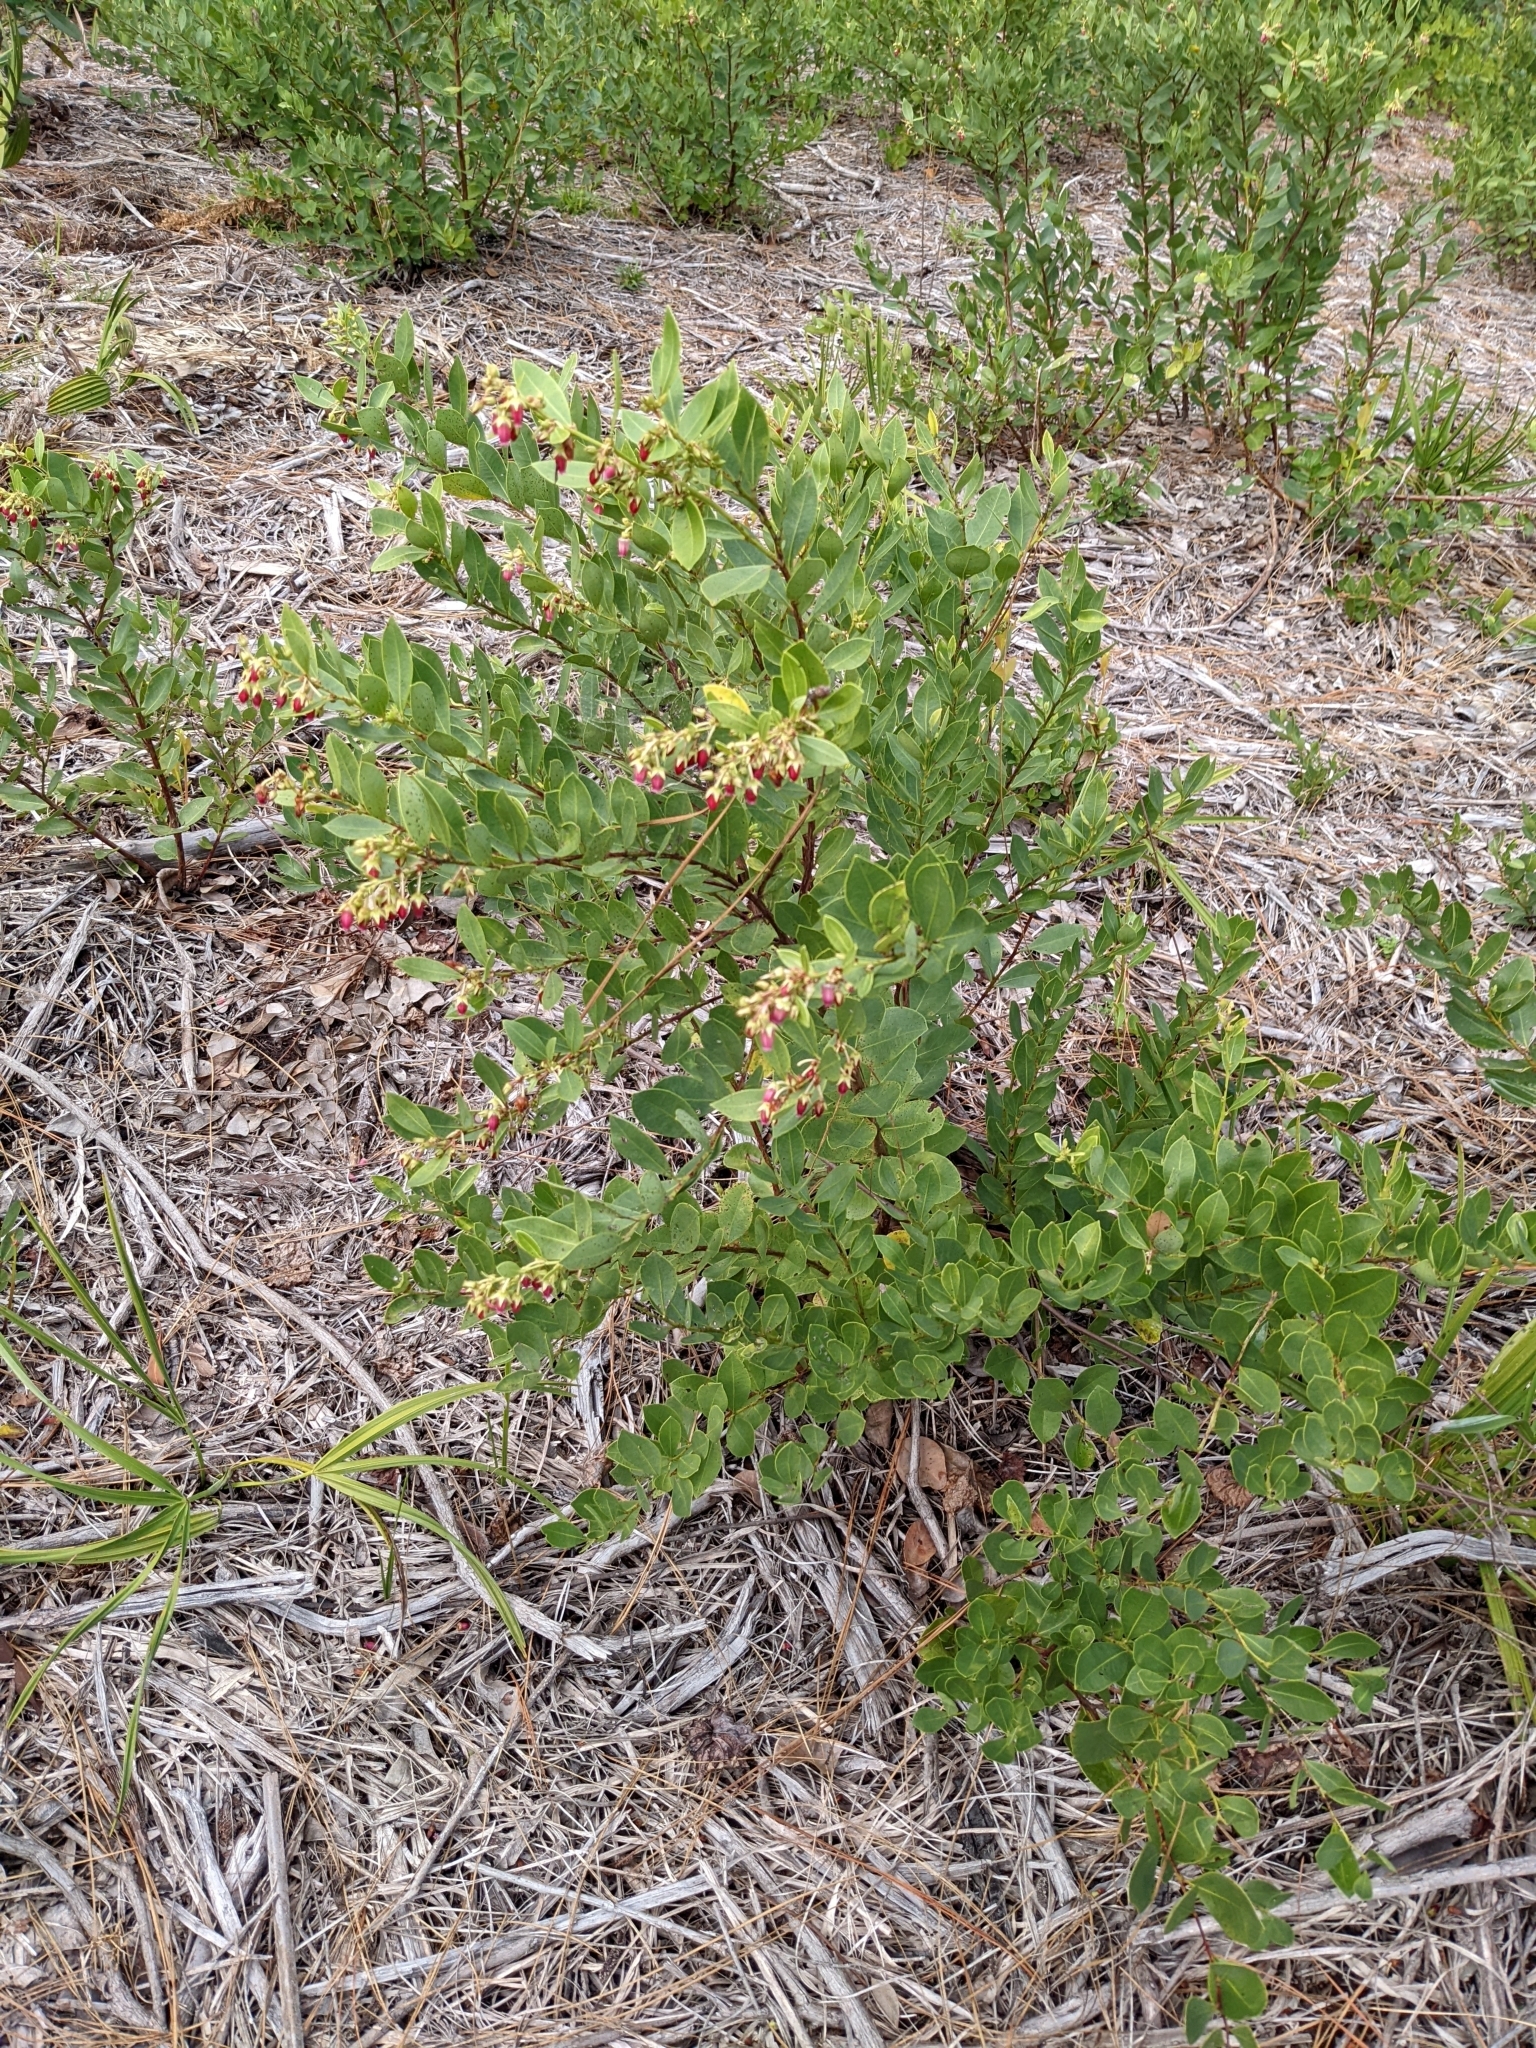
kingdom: Plantae
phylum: Tracheophyta
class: Magnoliopsida
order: Ericales
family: Ericaceae
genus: Lyonia
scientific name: Lyonia lucida
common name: Fetterbush
